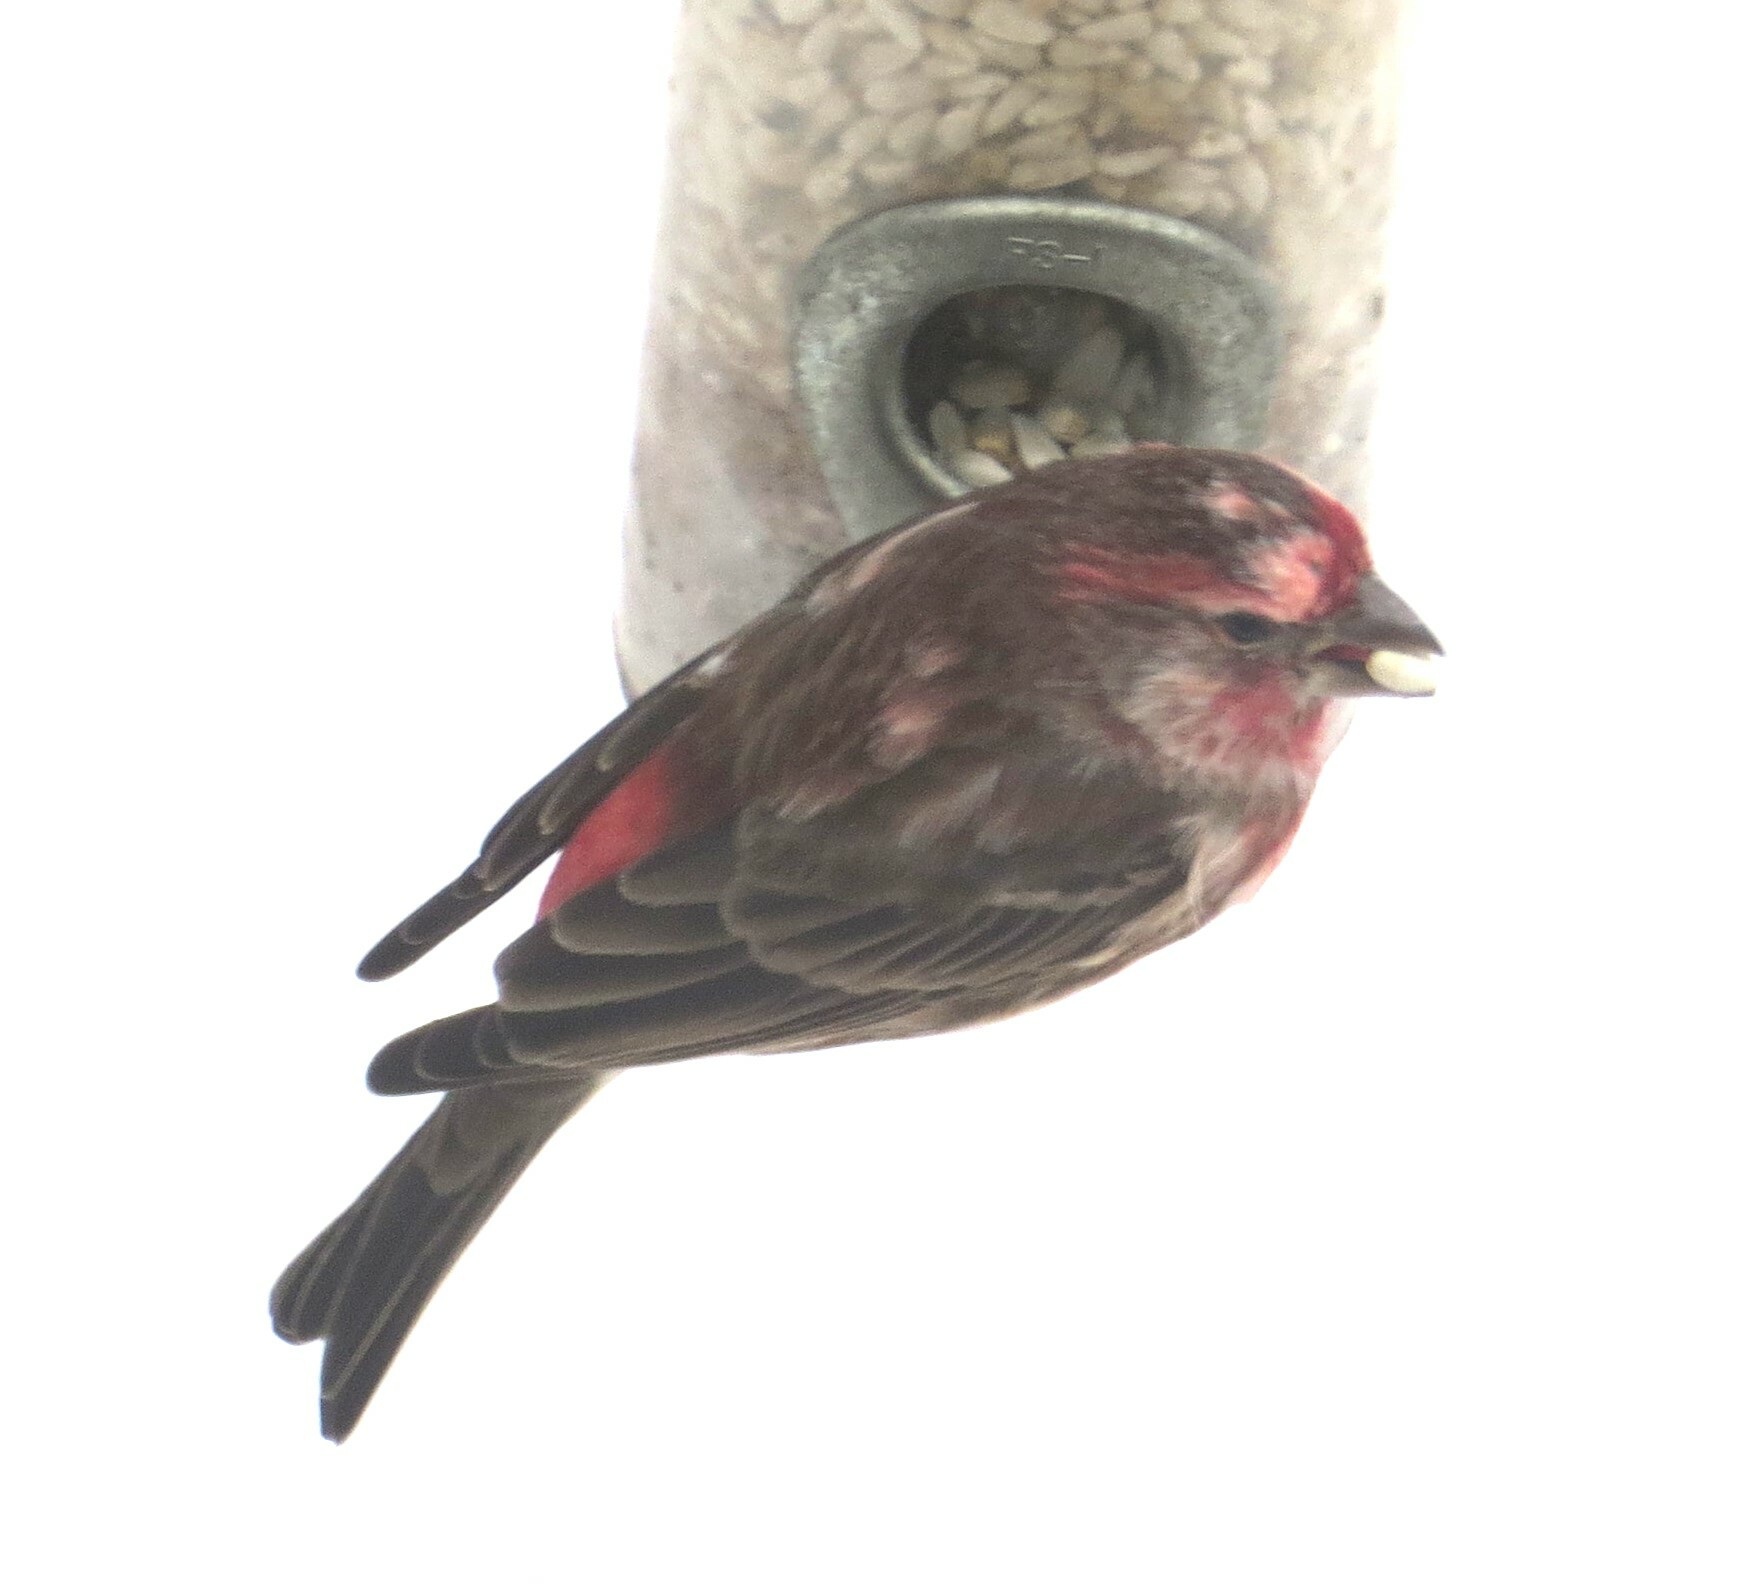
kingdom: Animalia
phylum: Chordata
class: Aves
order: Passeriformes
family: Fringillidae
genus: Haemorhous
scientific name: Haemorhous mexicanus
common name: House finch
